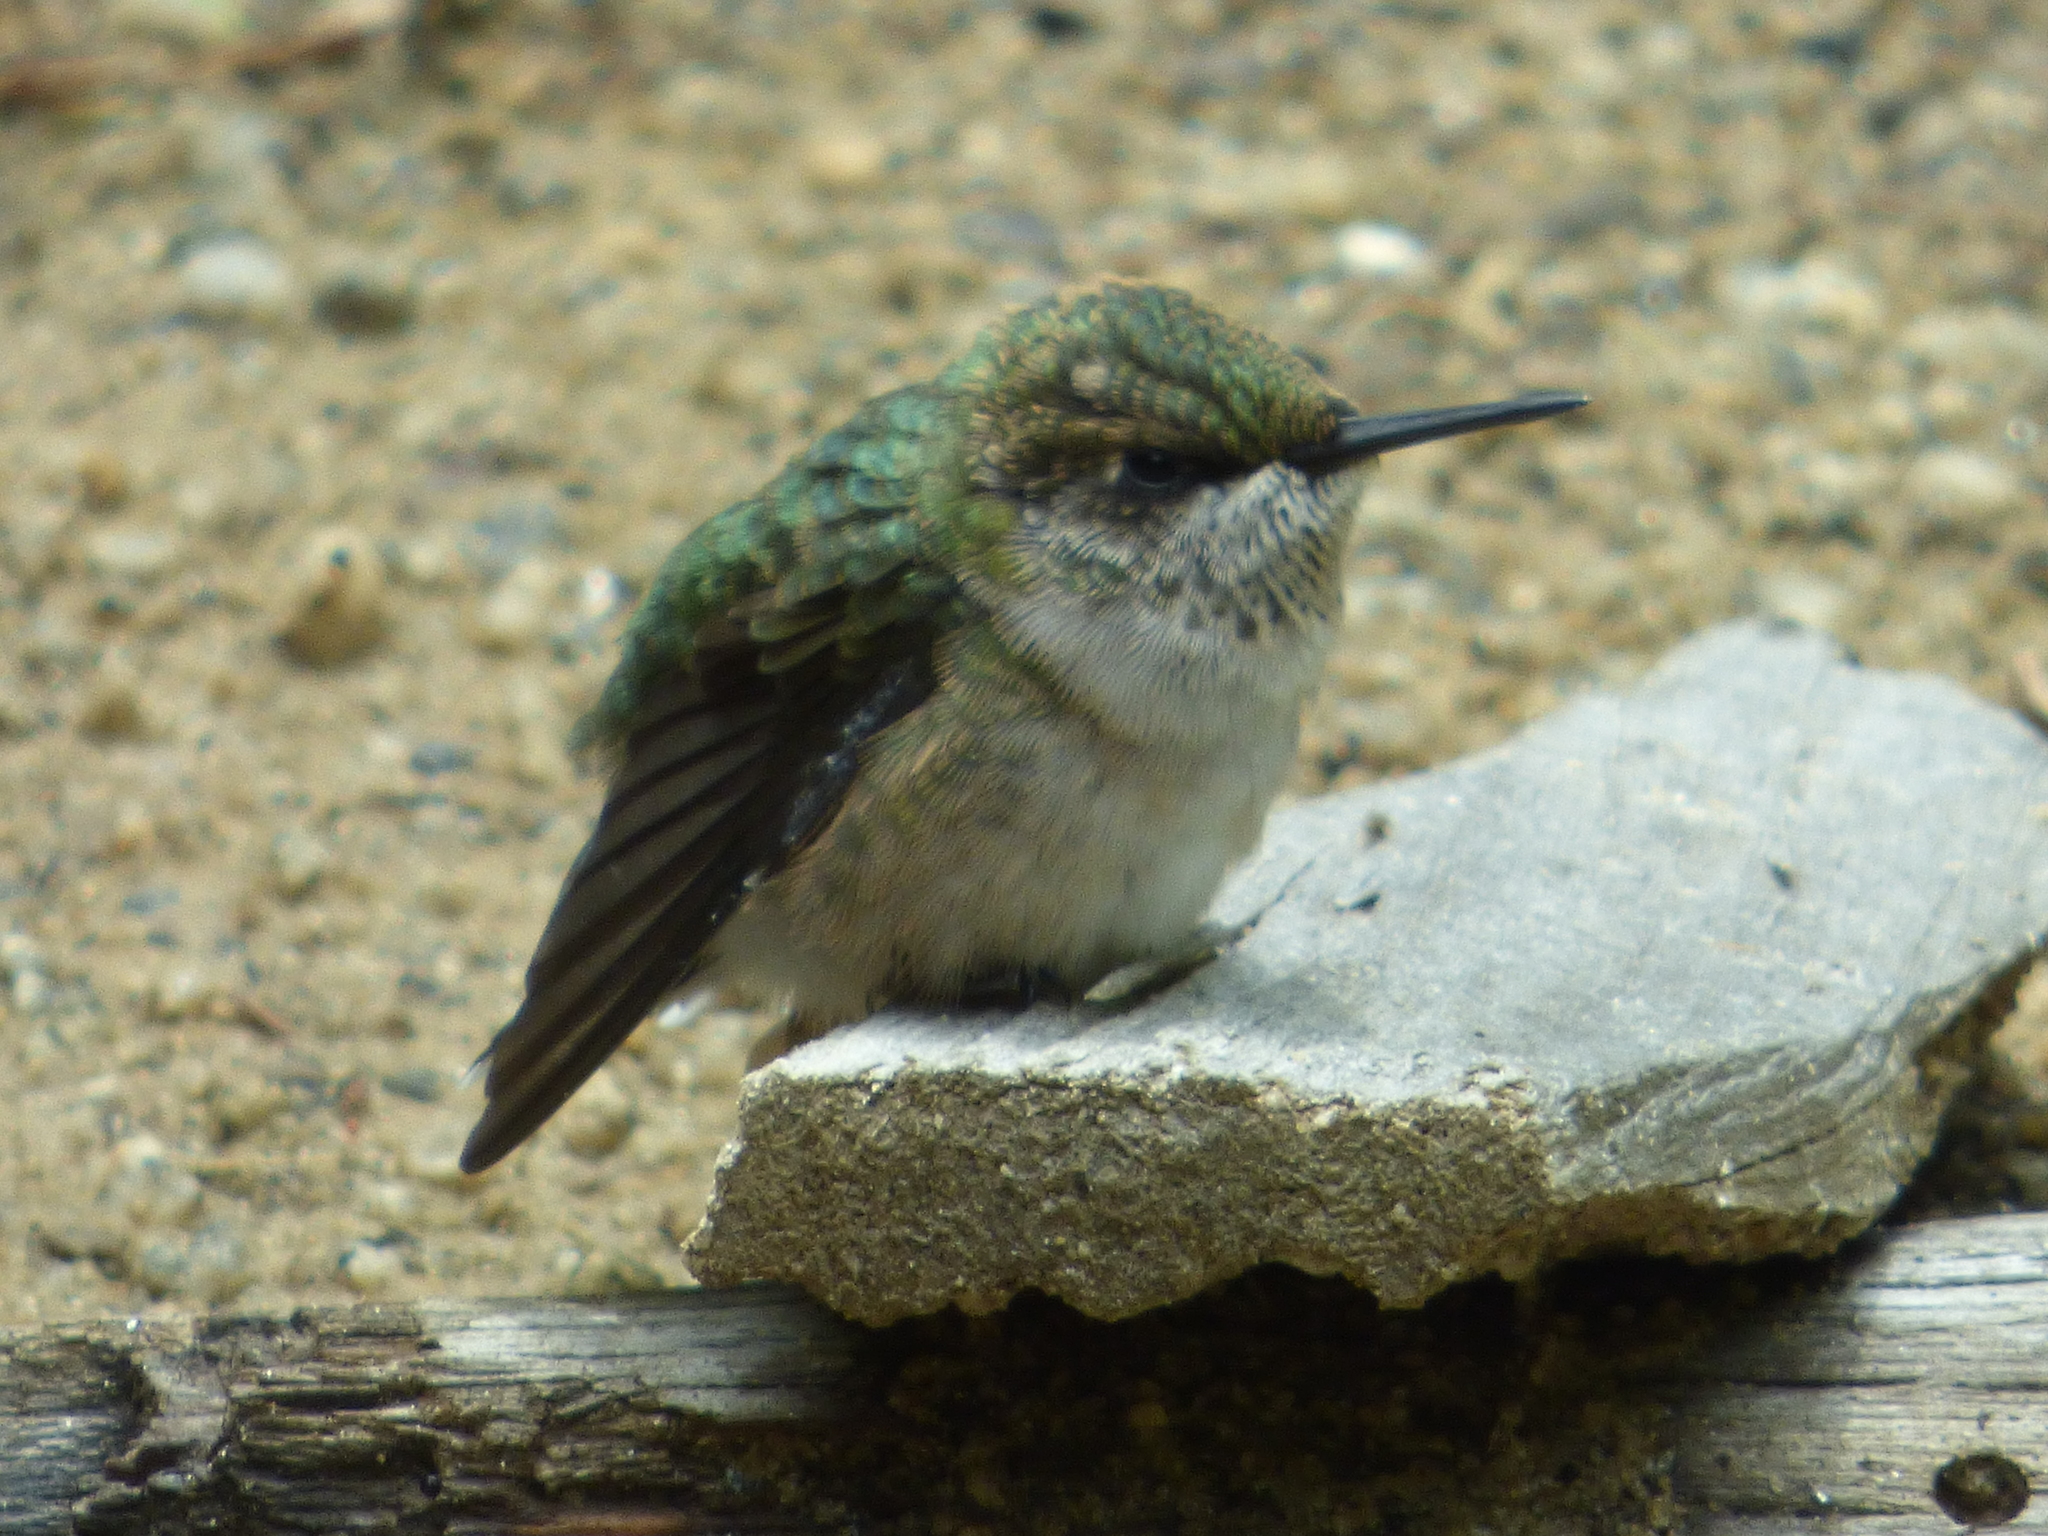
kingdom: Animalia
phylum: Chordata
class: Aves
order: Apodiformes
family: Trochilidae
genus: Archilochus
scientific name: Archilochus colubris
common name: Ruby-throated hummingbird
